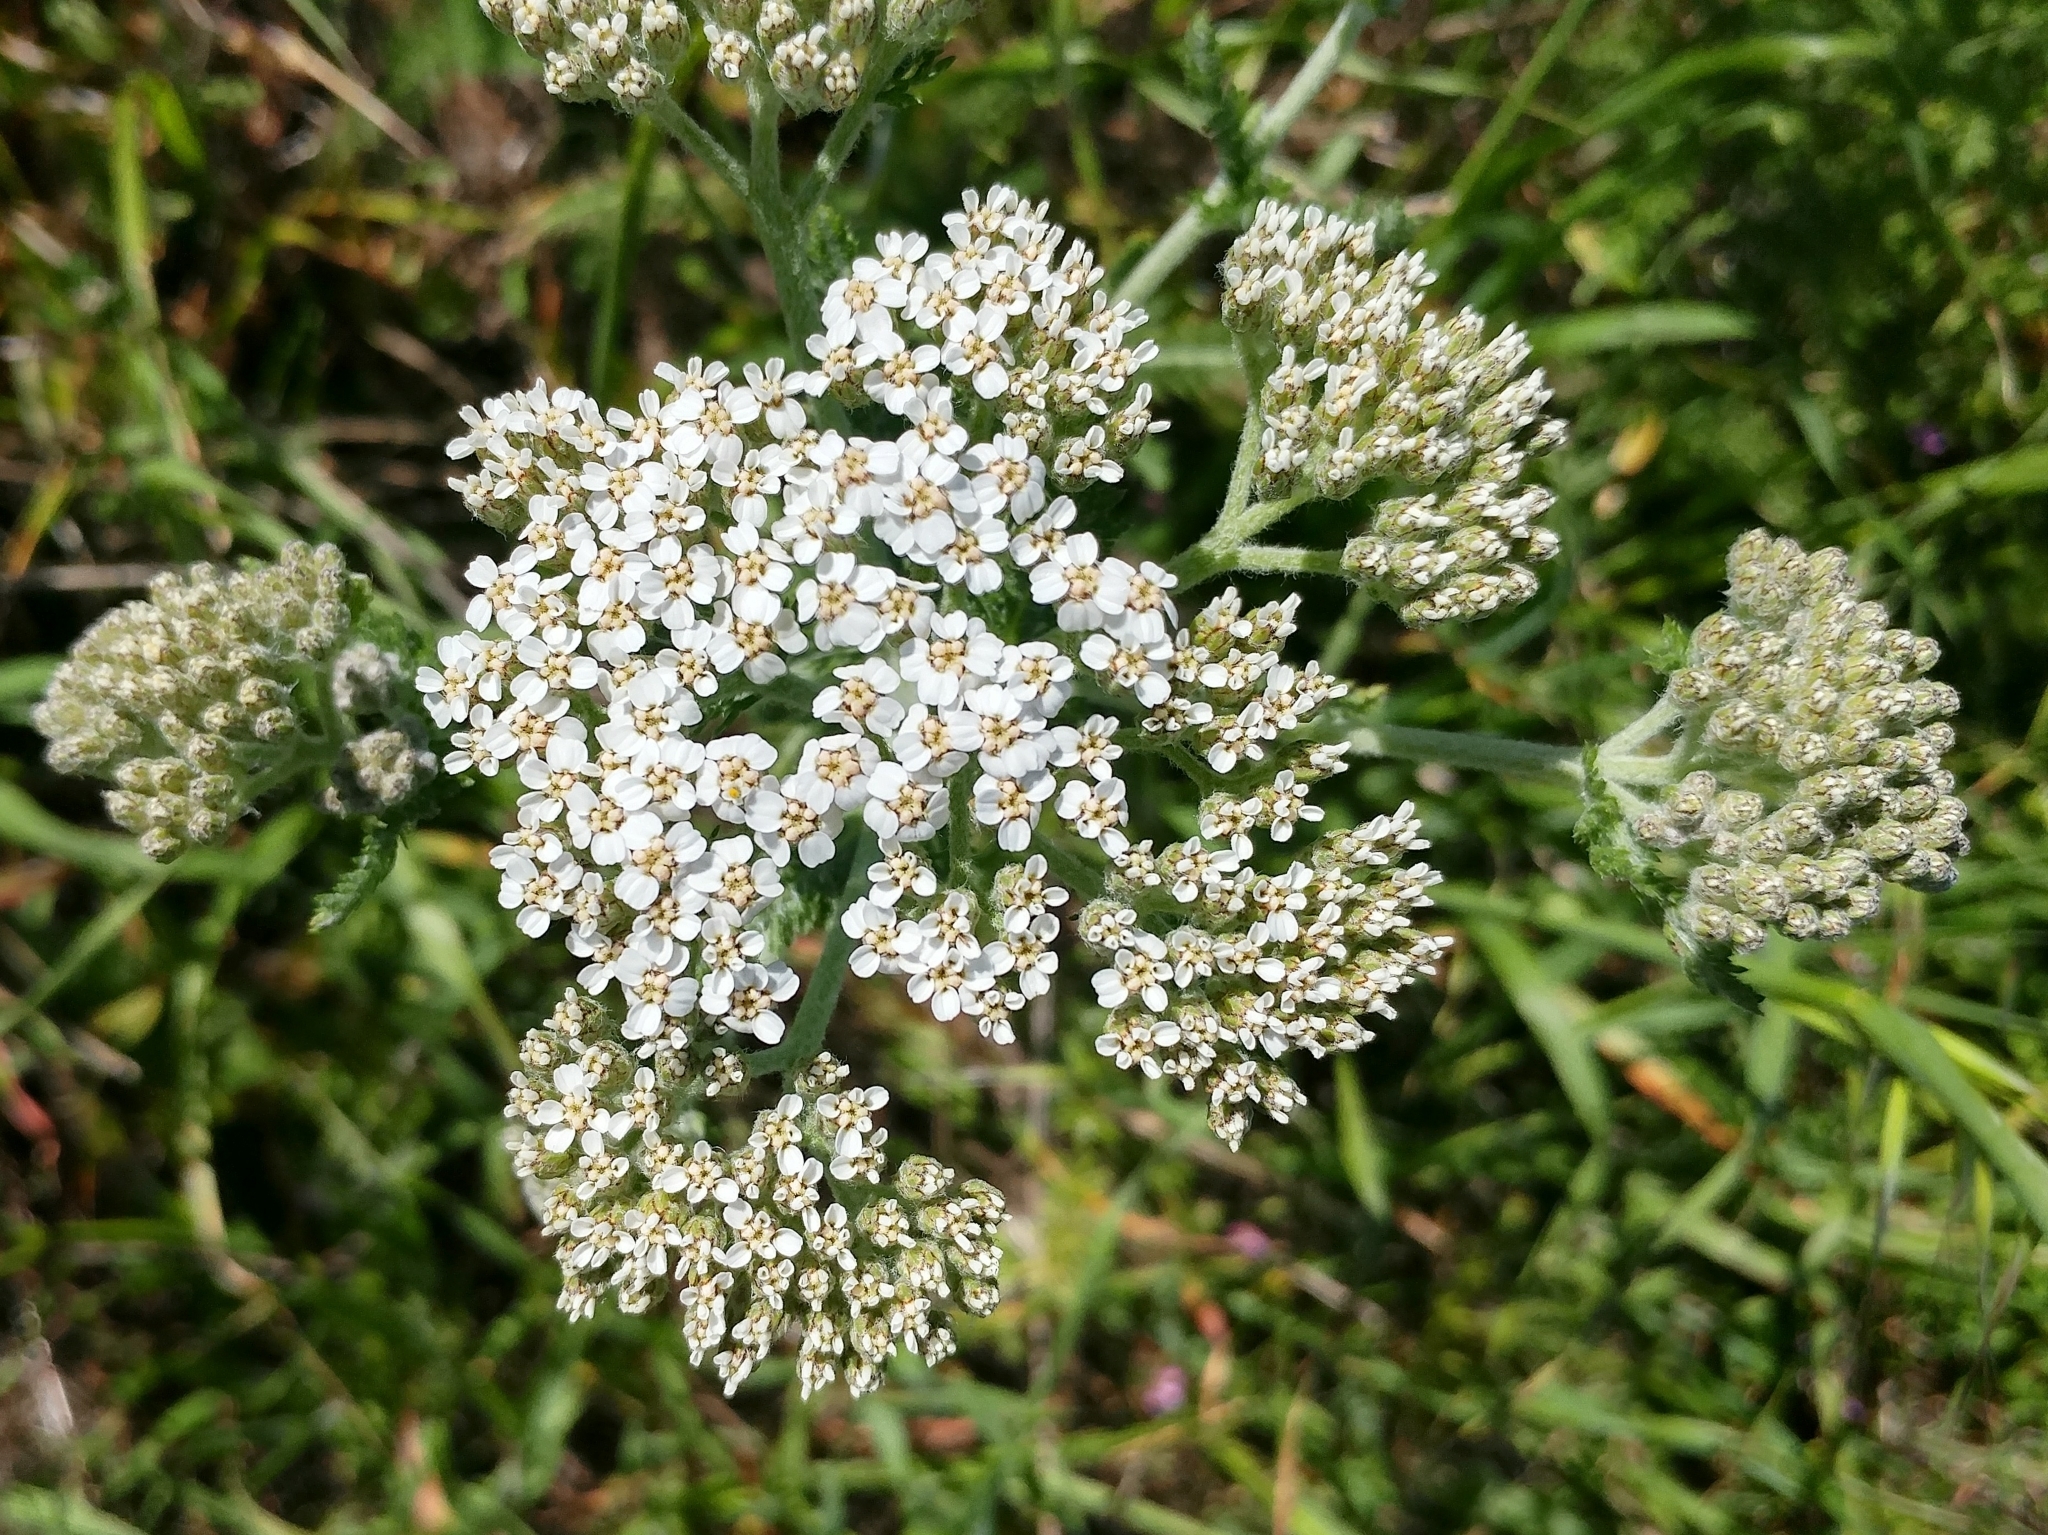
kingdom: Plantae
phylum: Tracheophyta
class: Magnoliopsida
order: Asterales
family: Asteraceae
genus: Achillea
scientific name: Achillea millefolium
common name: Yarrow
